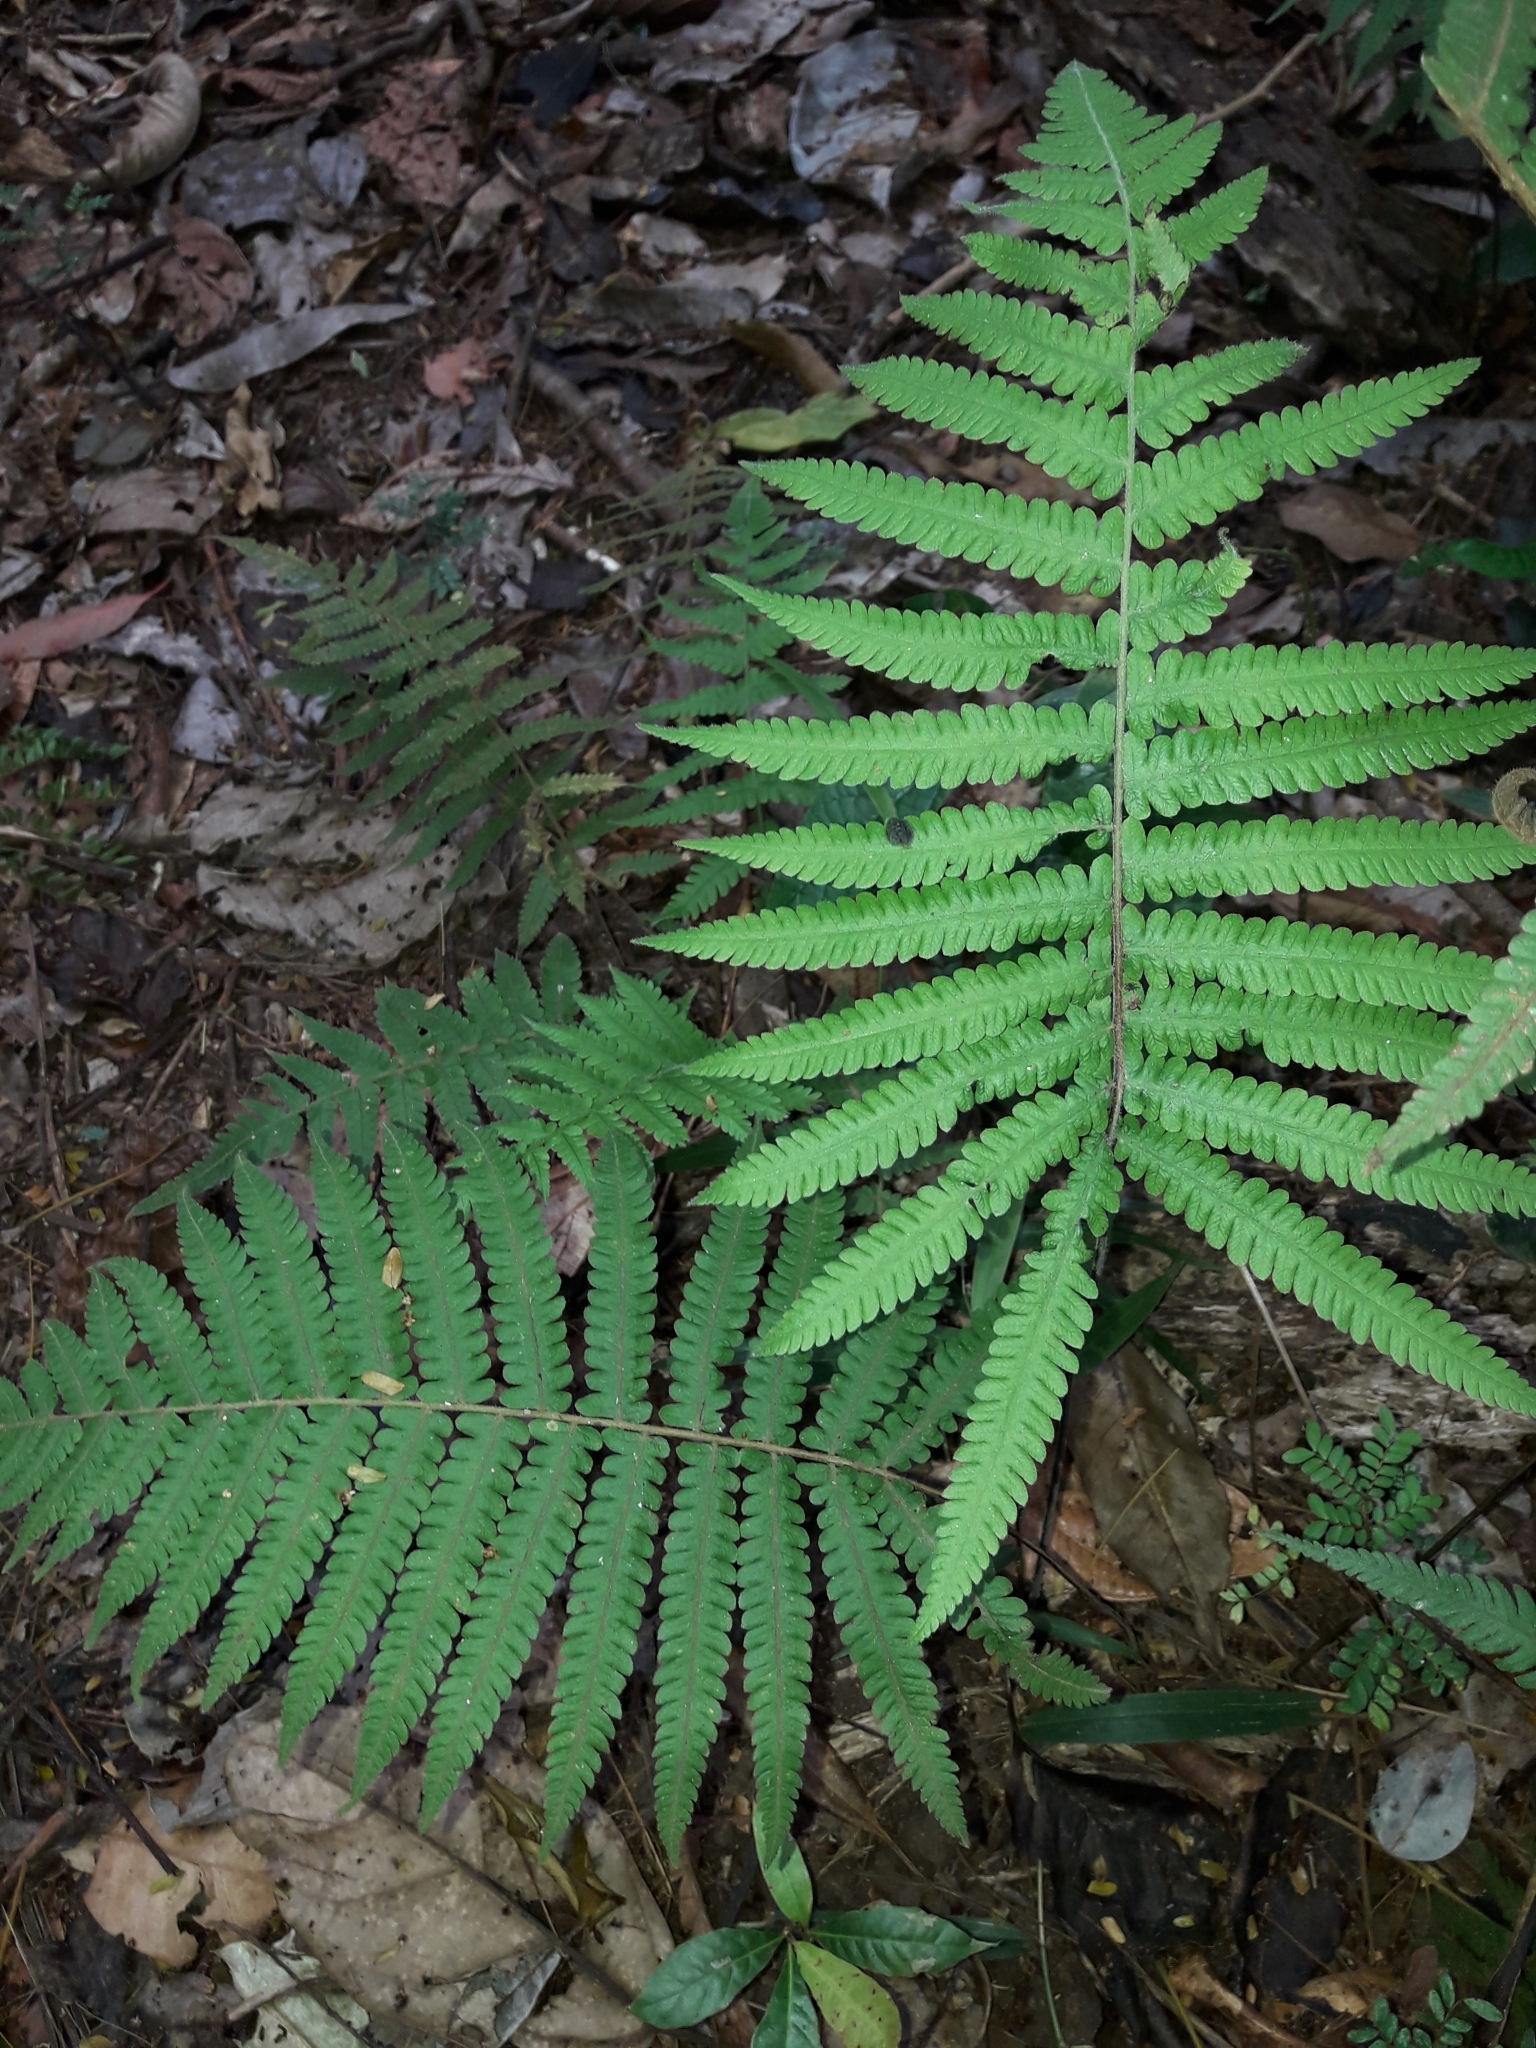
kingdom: Plantae
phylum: Tracheophyta
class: Polypodiopsida
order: Polypodiales
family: Thelypteridaceae
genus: Christella
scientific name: Christella parasitica
